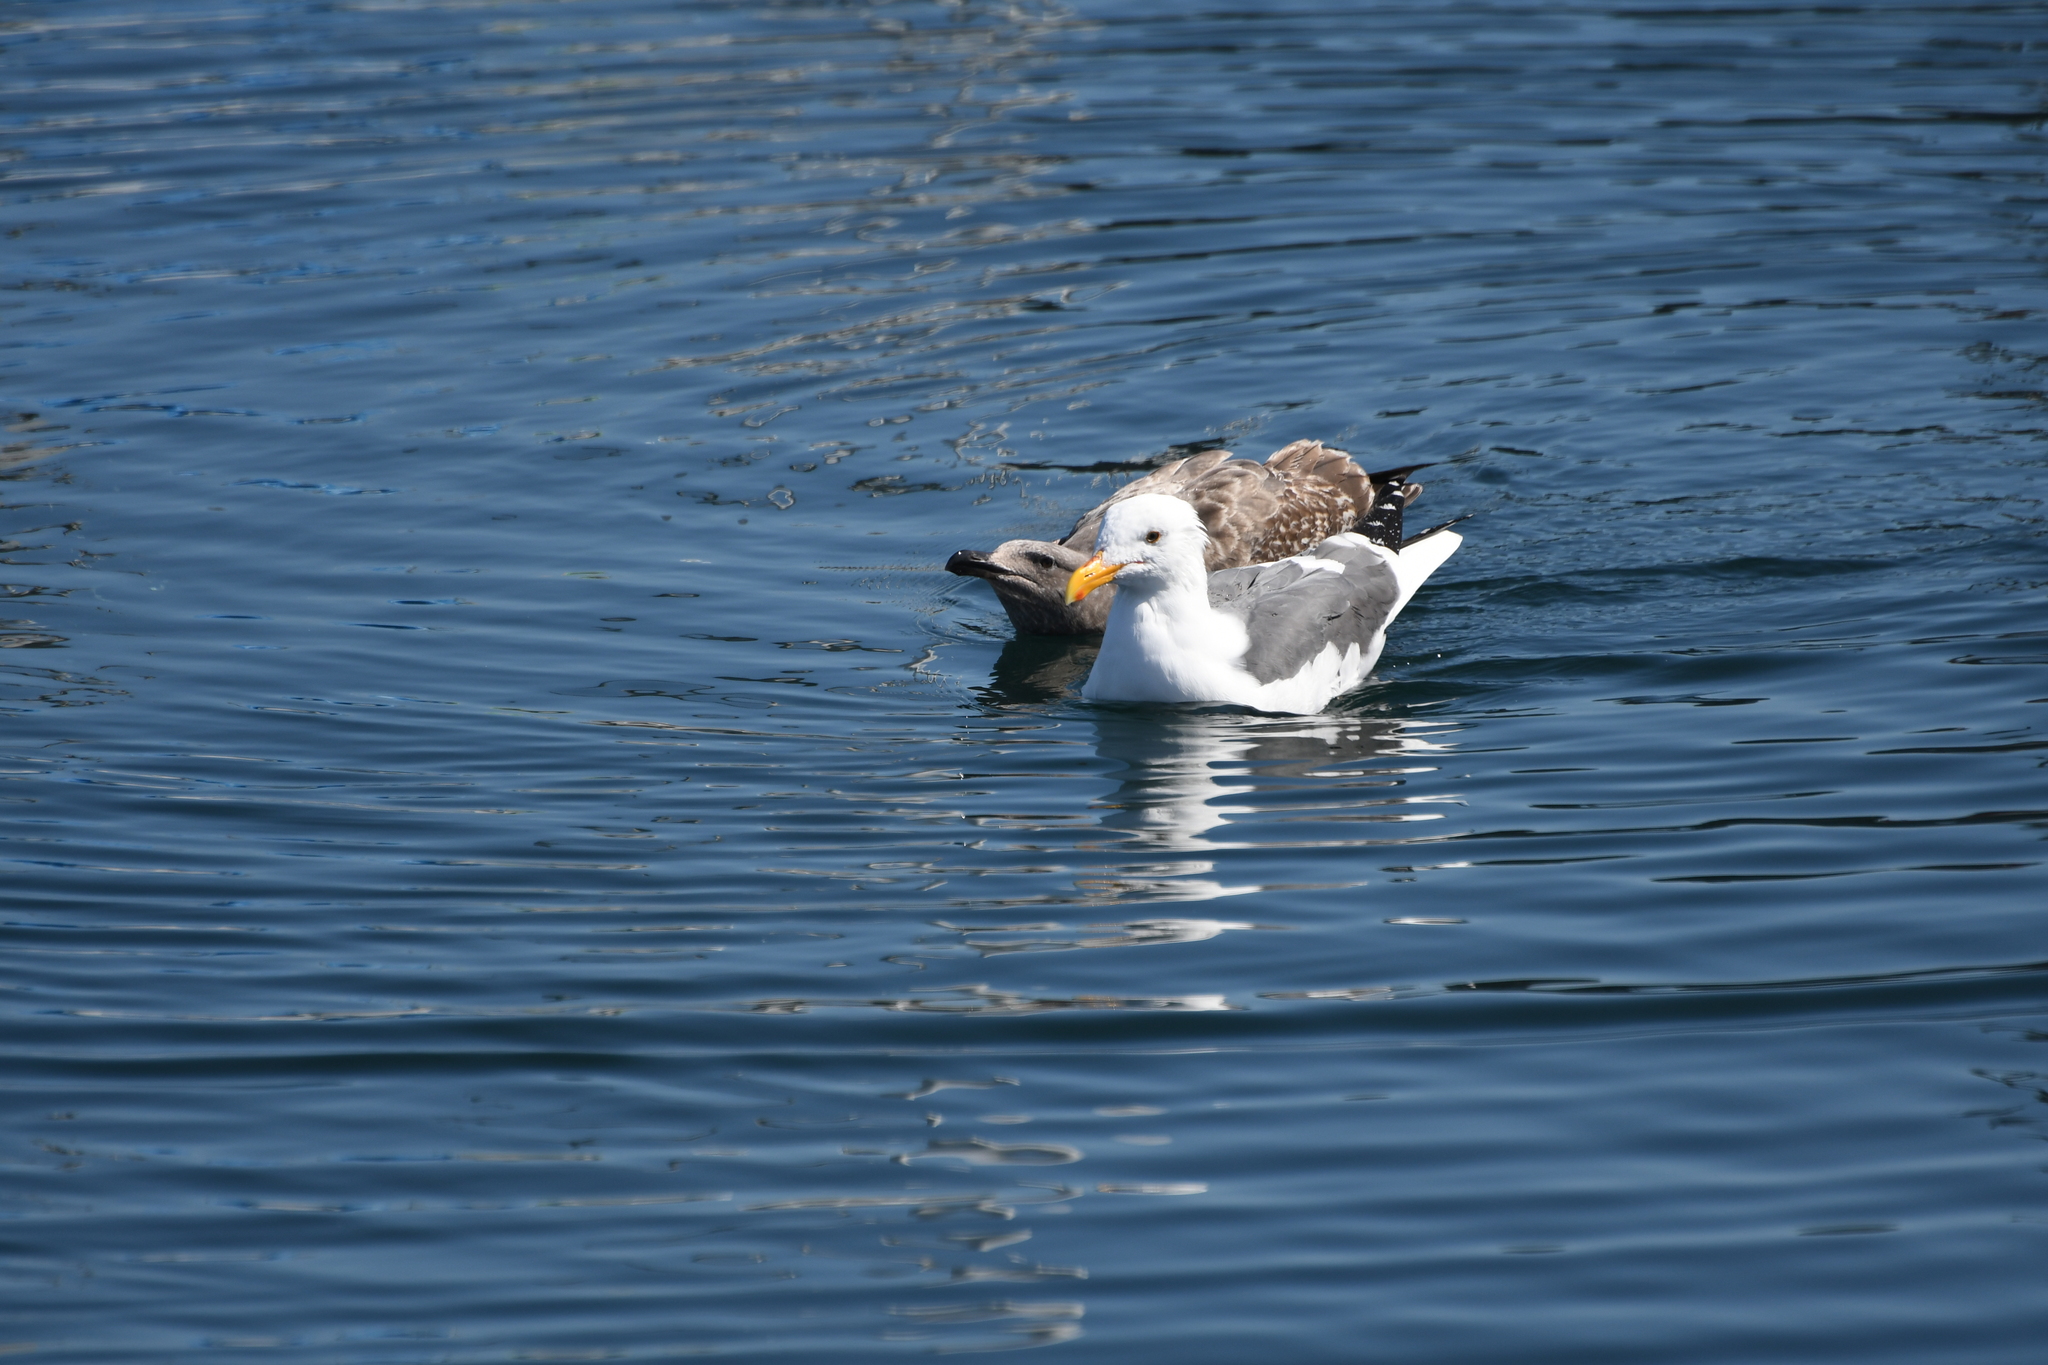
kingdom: Animalia
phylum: Chordata
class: Aves
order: Charadriiformes
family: Laridae
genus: Larus
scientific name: Larus occidentalis
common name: Western gull
